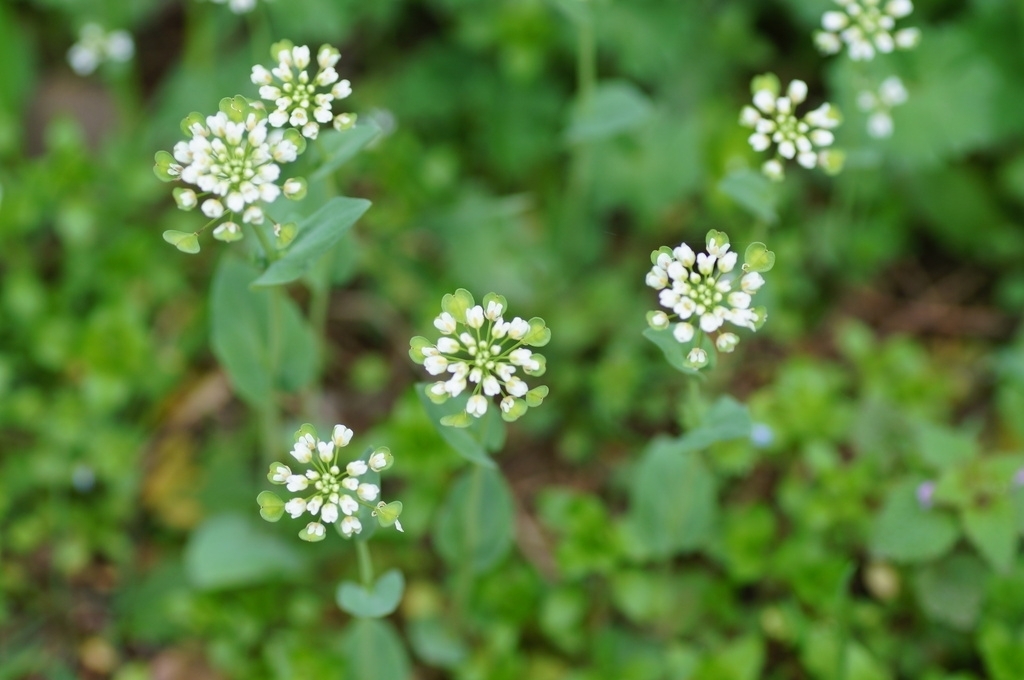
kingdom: Plantae
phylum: Tracheophyta
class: Magnoliopsida
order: Brassicales
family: Brassicaceae
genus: Noccaea
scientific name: Noccaea perfoliata
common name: Perfoliate pennycress
